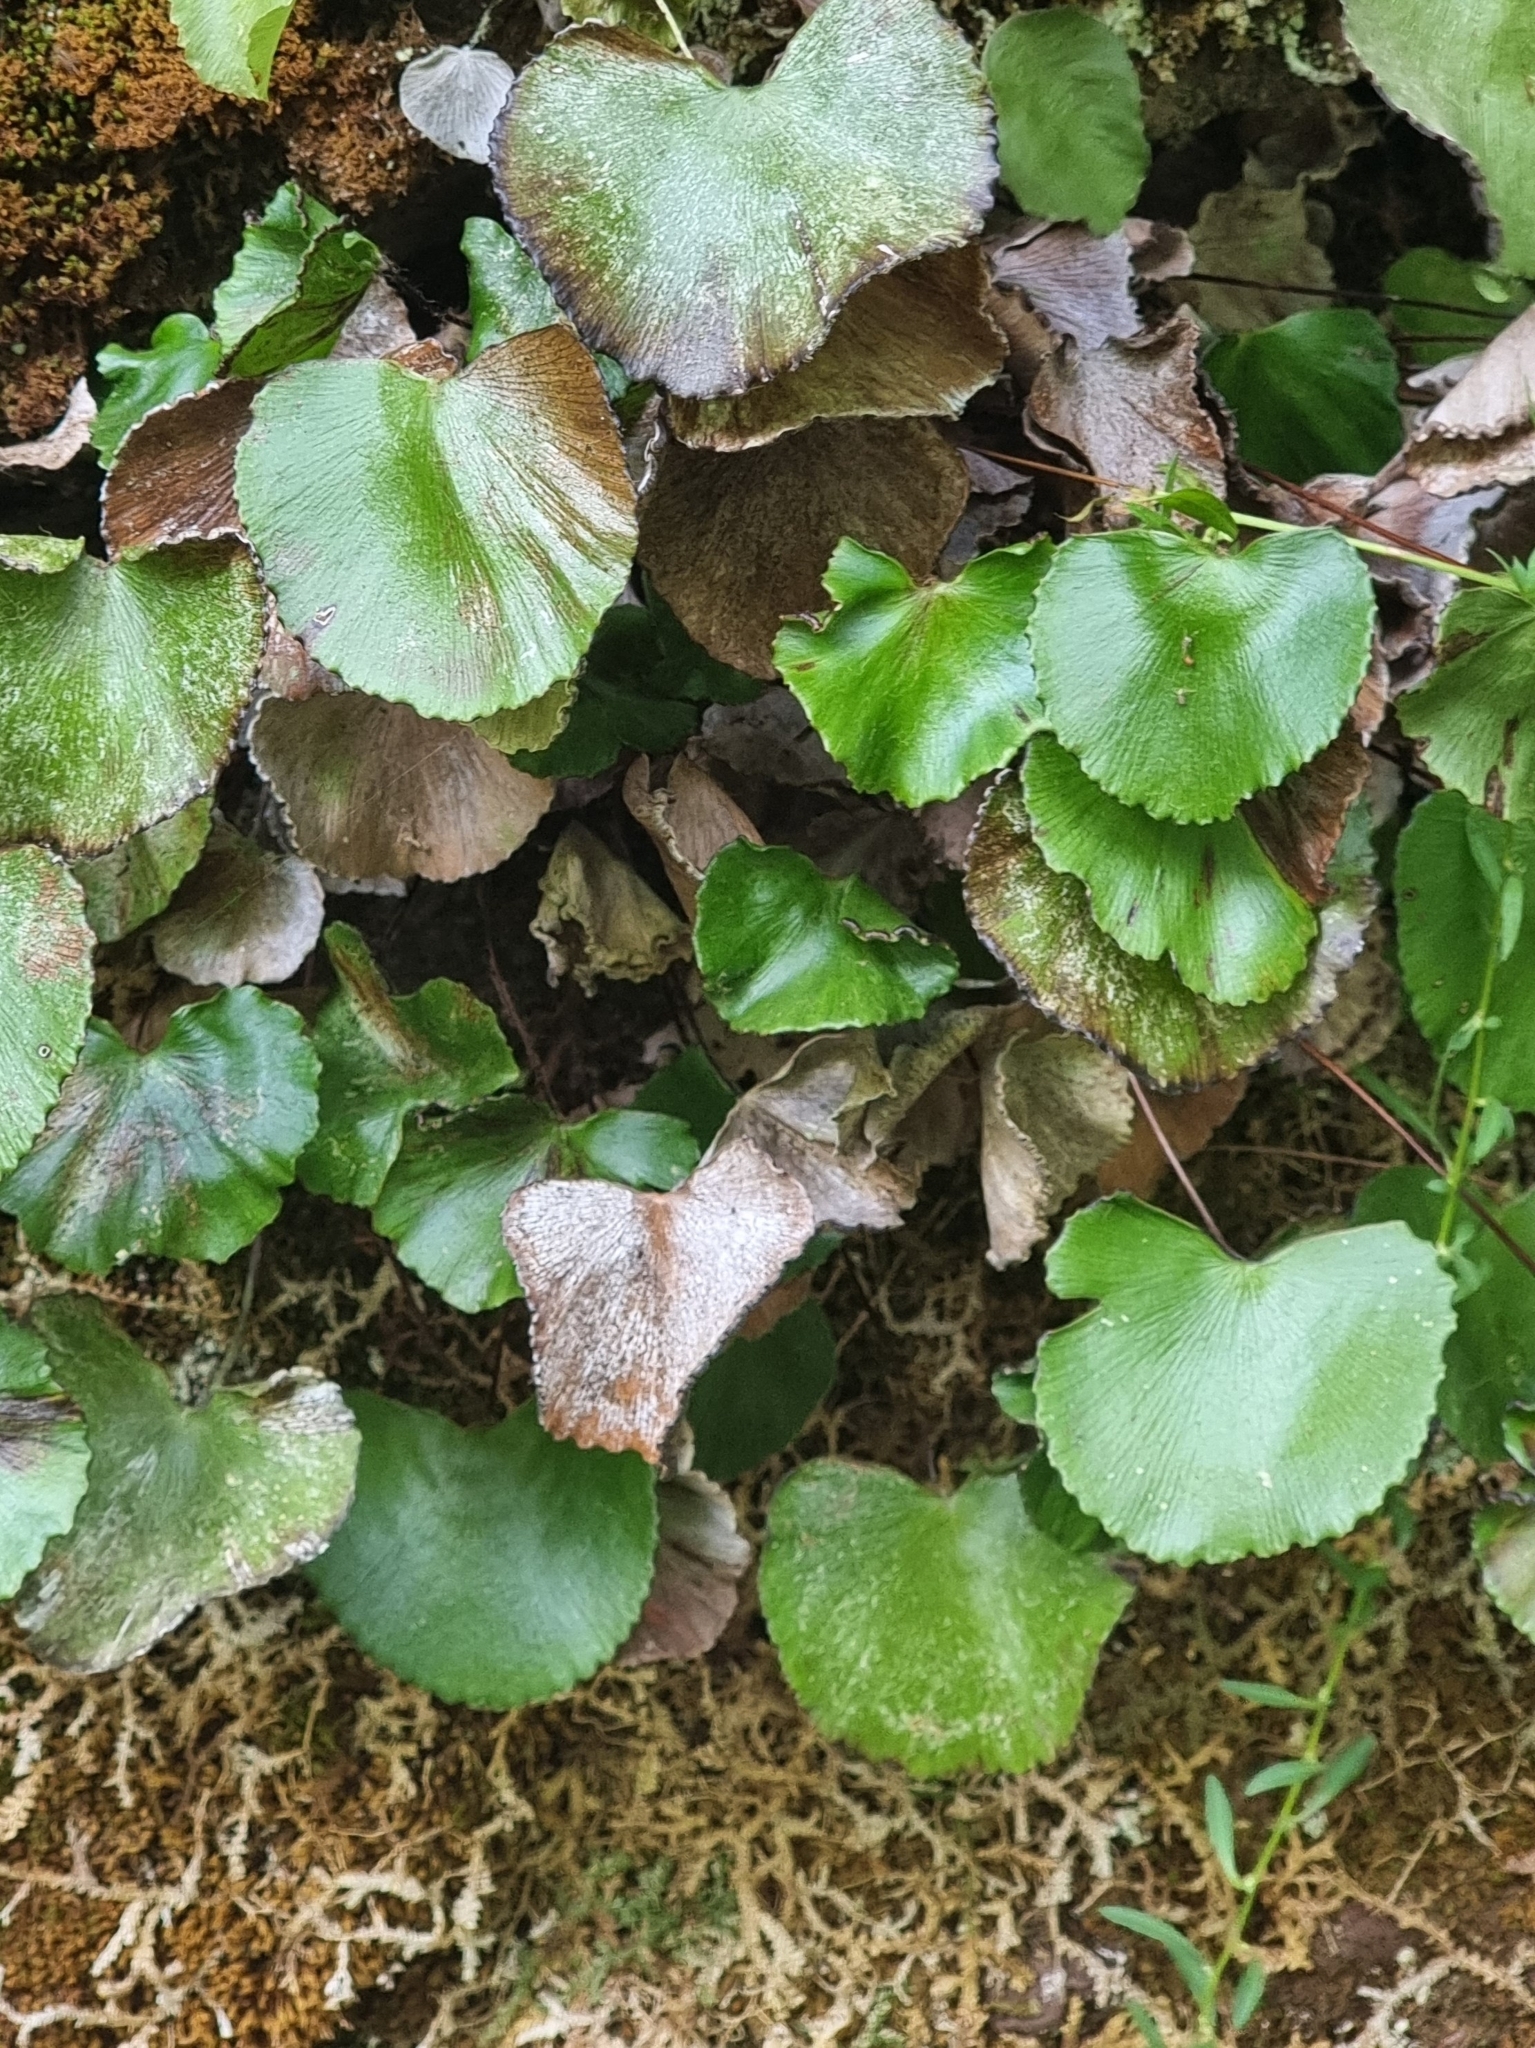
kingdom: Plantae
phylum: Tracheophyta
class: Polypodiopsida
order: Polypodiales
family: Pteridaceae
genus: Adiantum
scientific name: Adiantum reniforme
